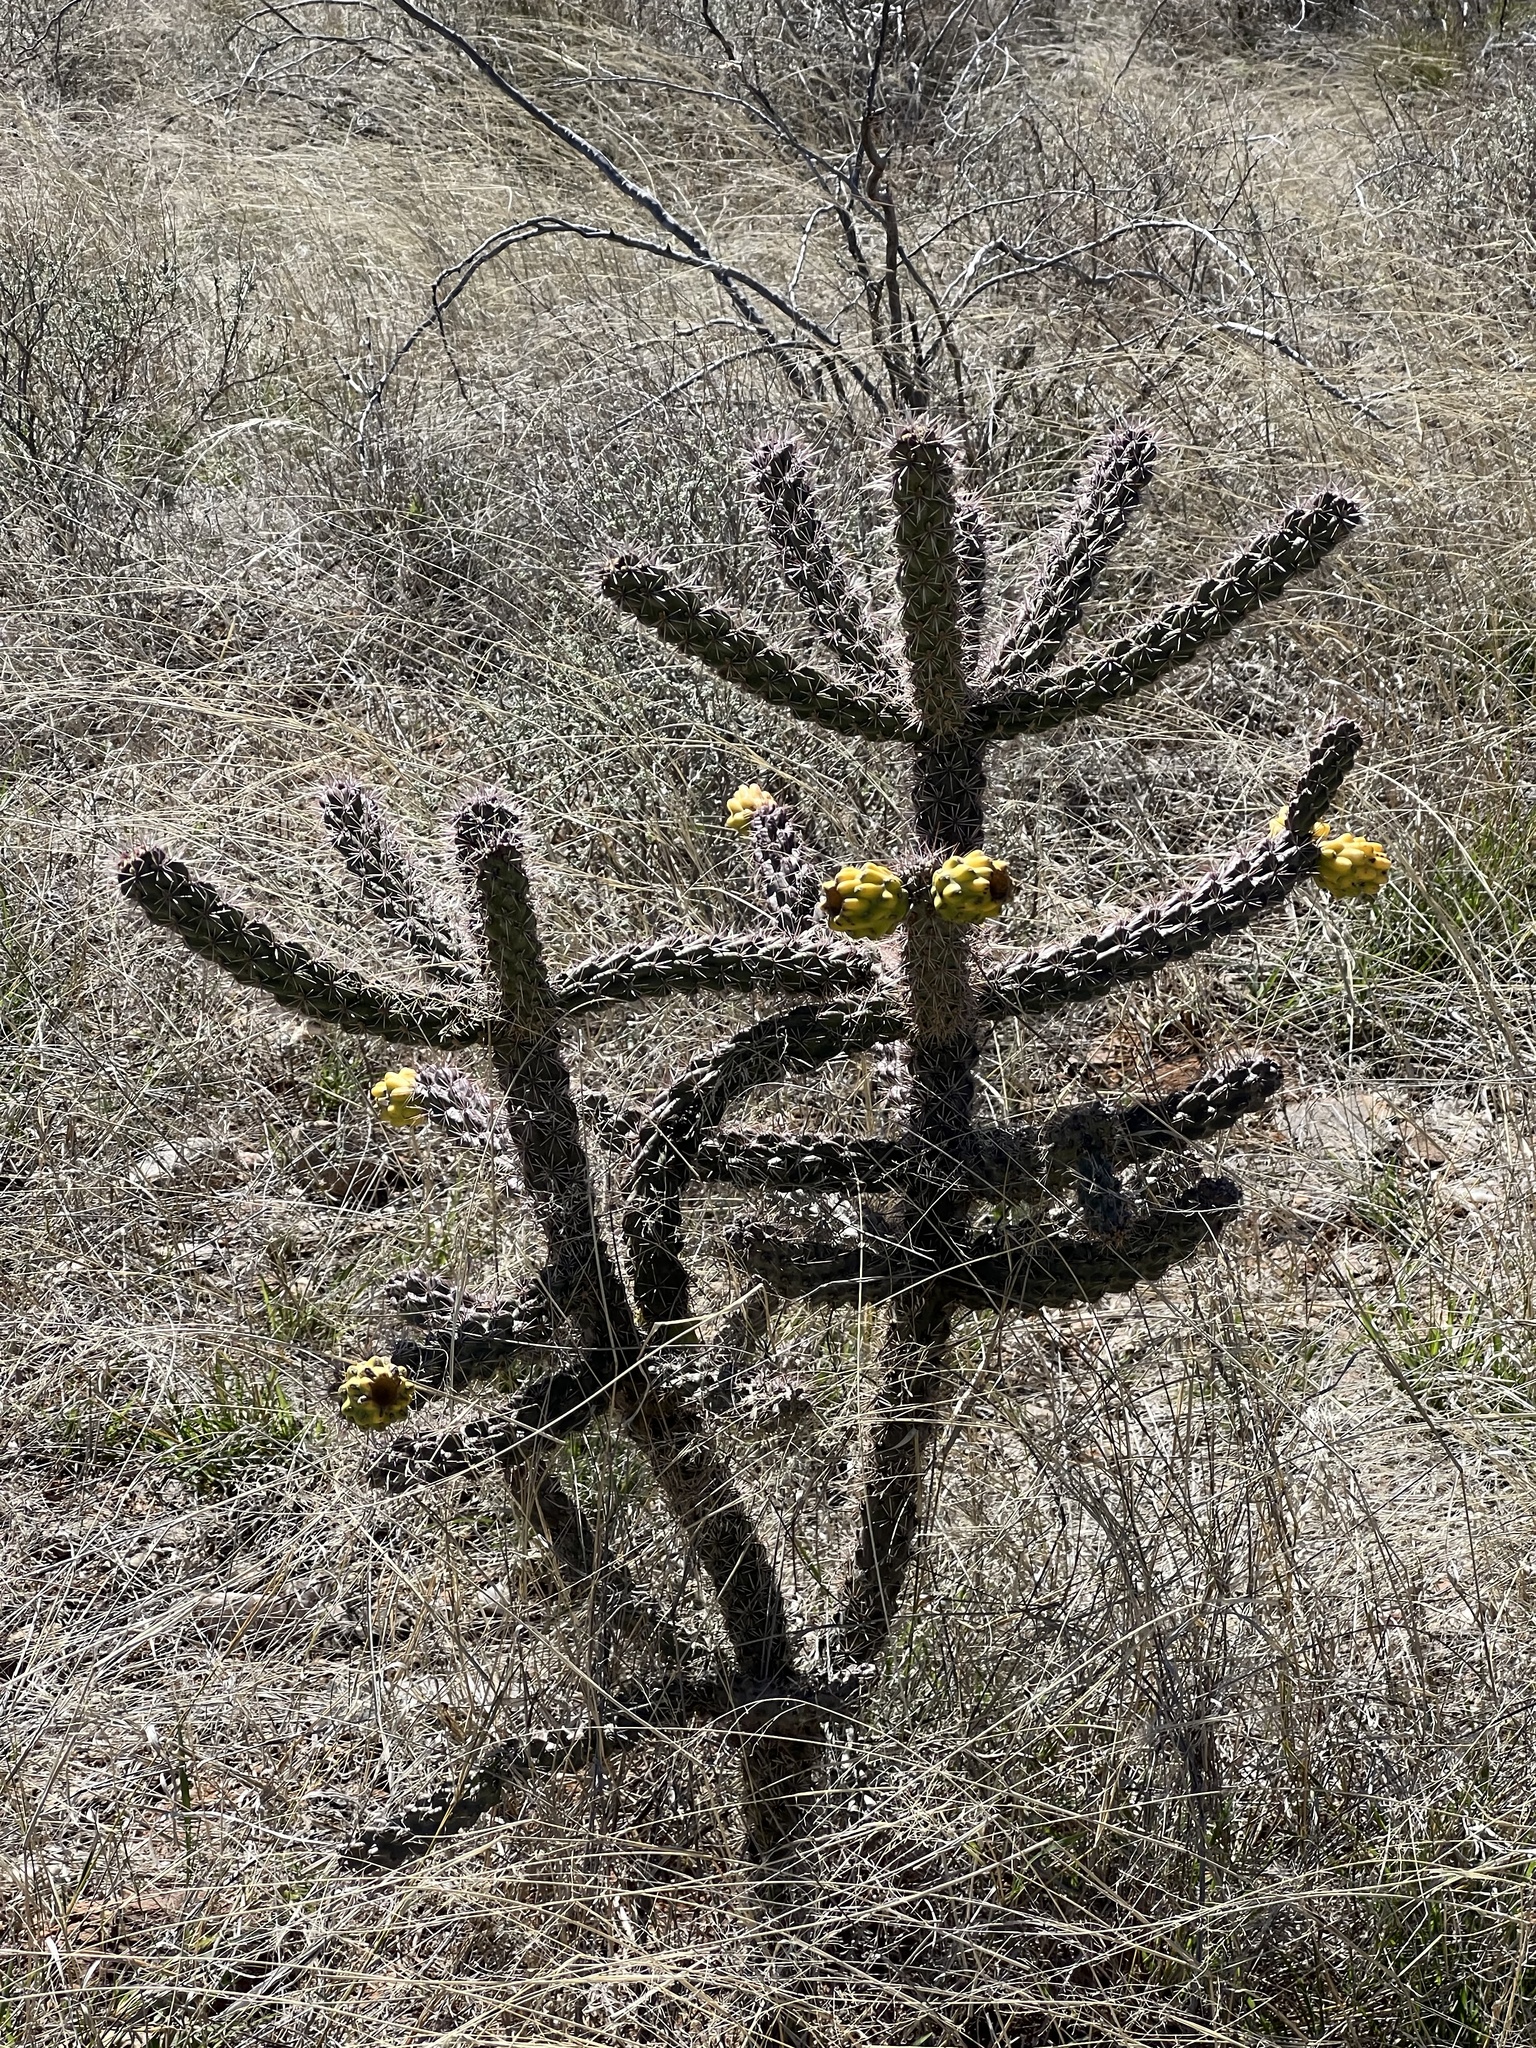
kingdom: Plantae
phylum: Tracheophyta
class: Magnoliopsida
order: Caryophyllales
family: Cactaceae
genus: Cylindropuntia
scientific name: Cylindropuntia imbricata
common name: Candelabrum cactus
